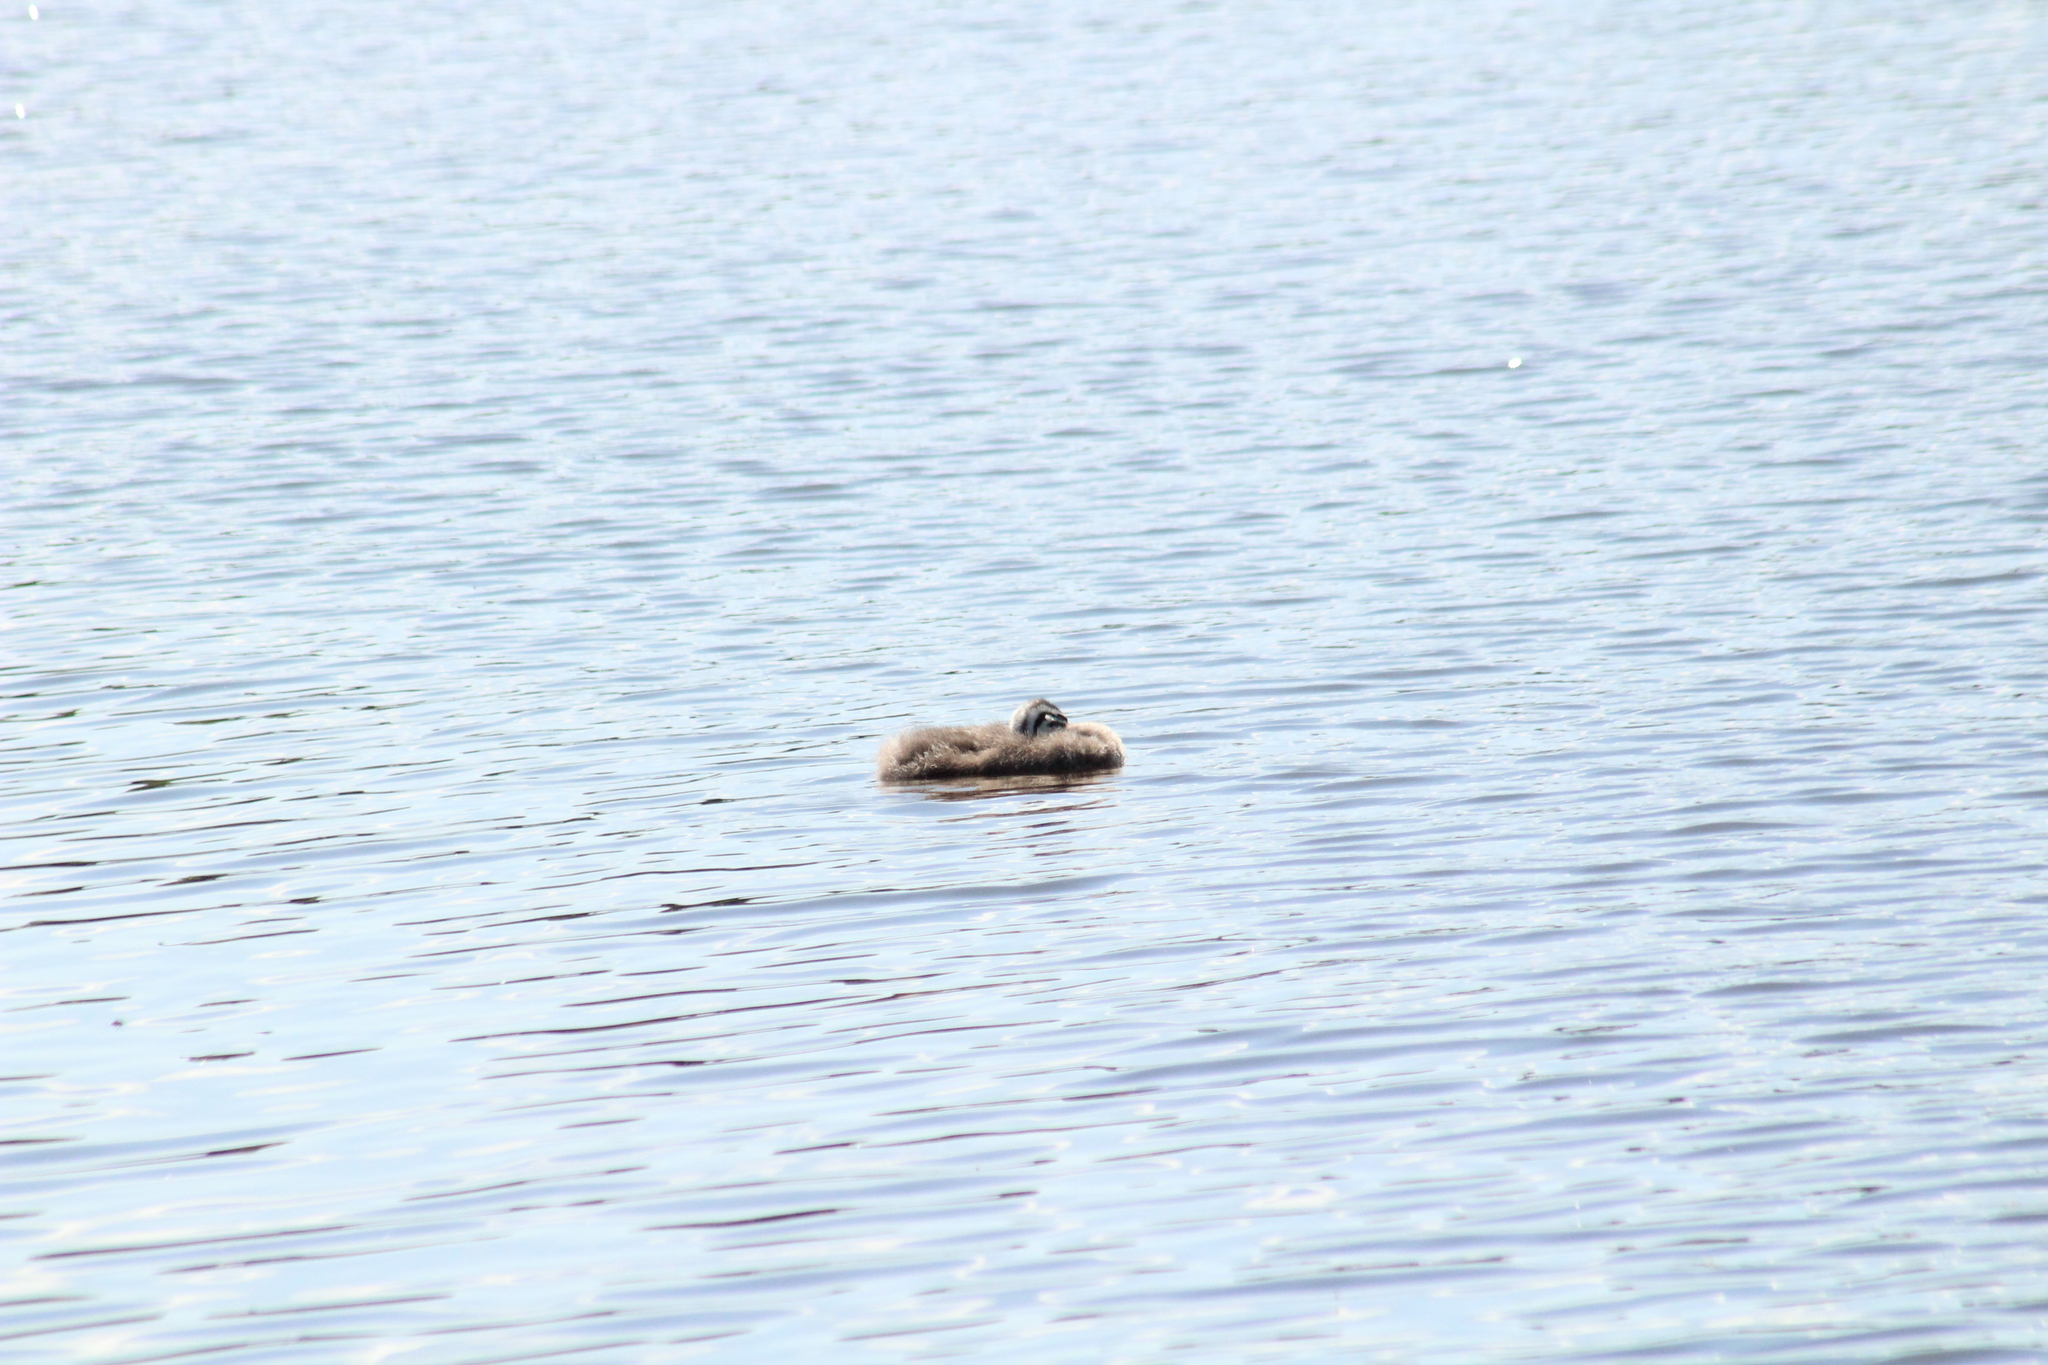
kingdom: Animalia
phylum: Chordata
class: Aves
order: Podicipediformes
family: Podicipedidae
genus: Podiceps
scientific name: Podiceps cristatus
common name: Great crested grebe
